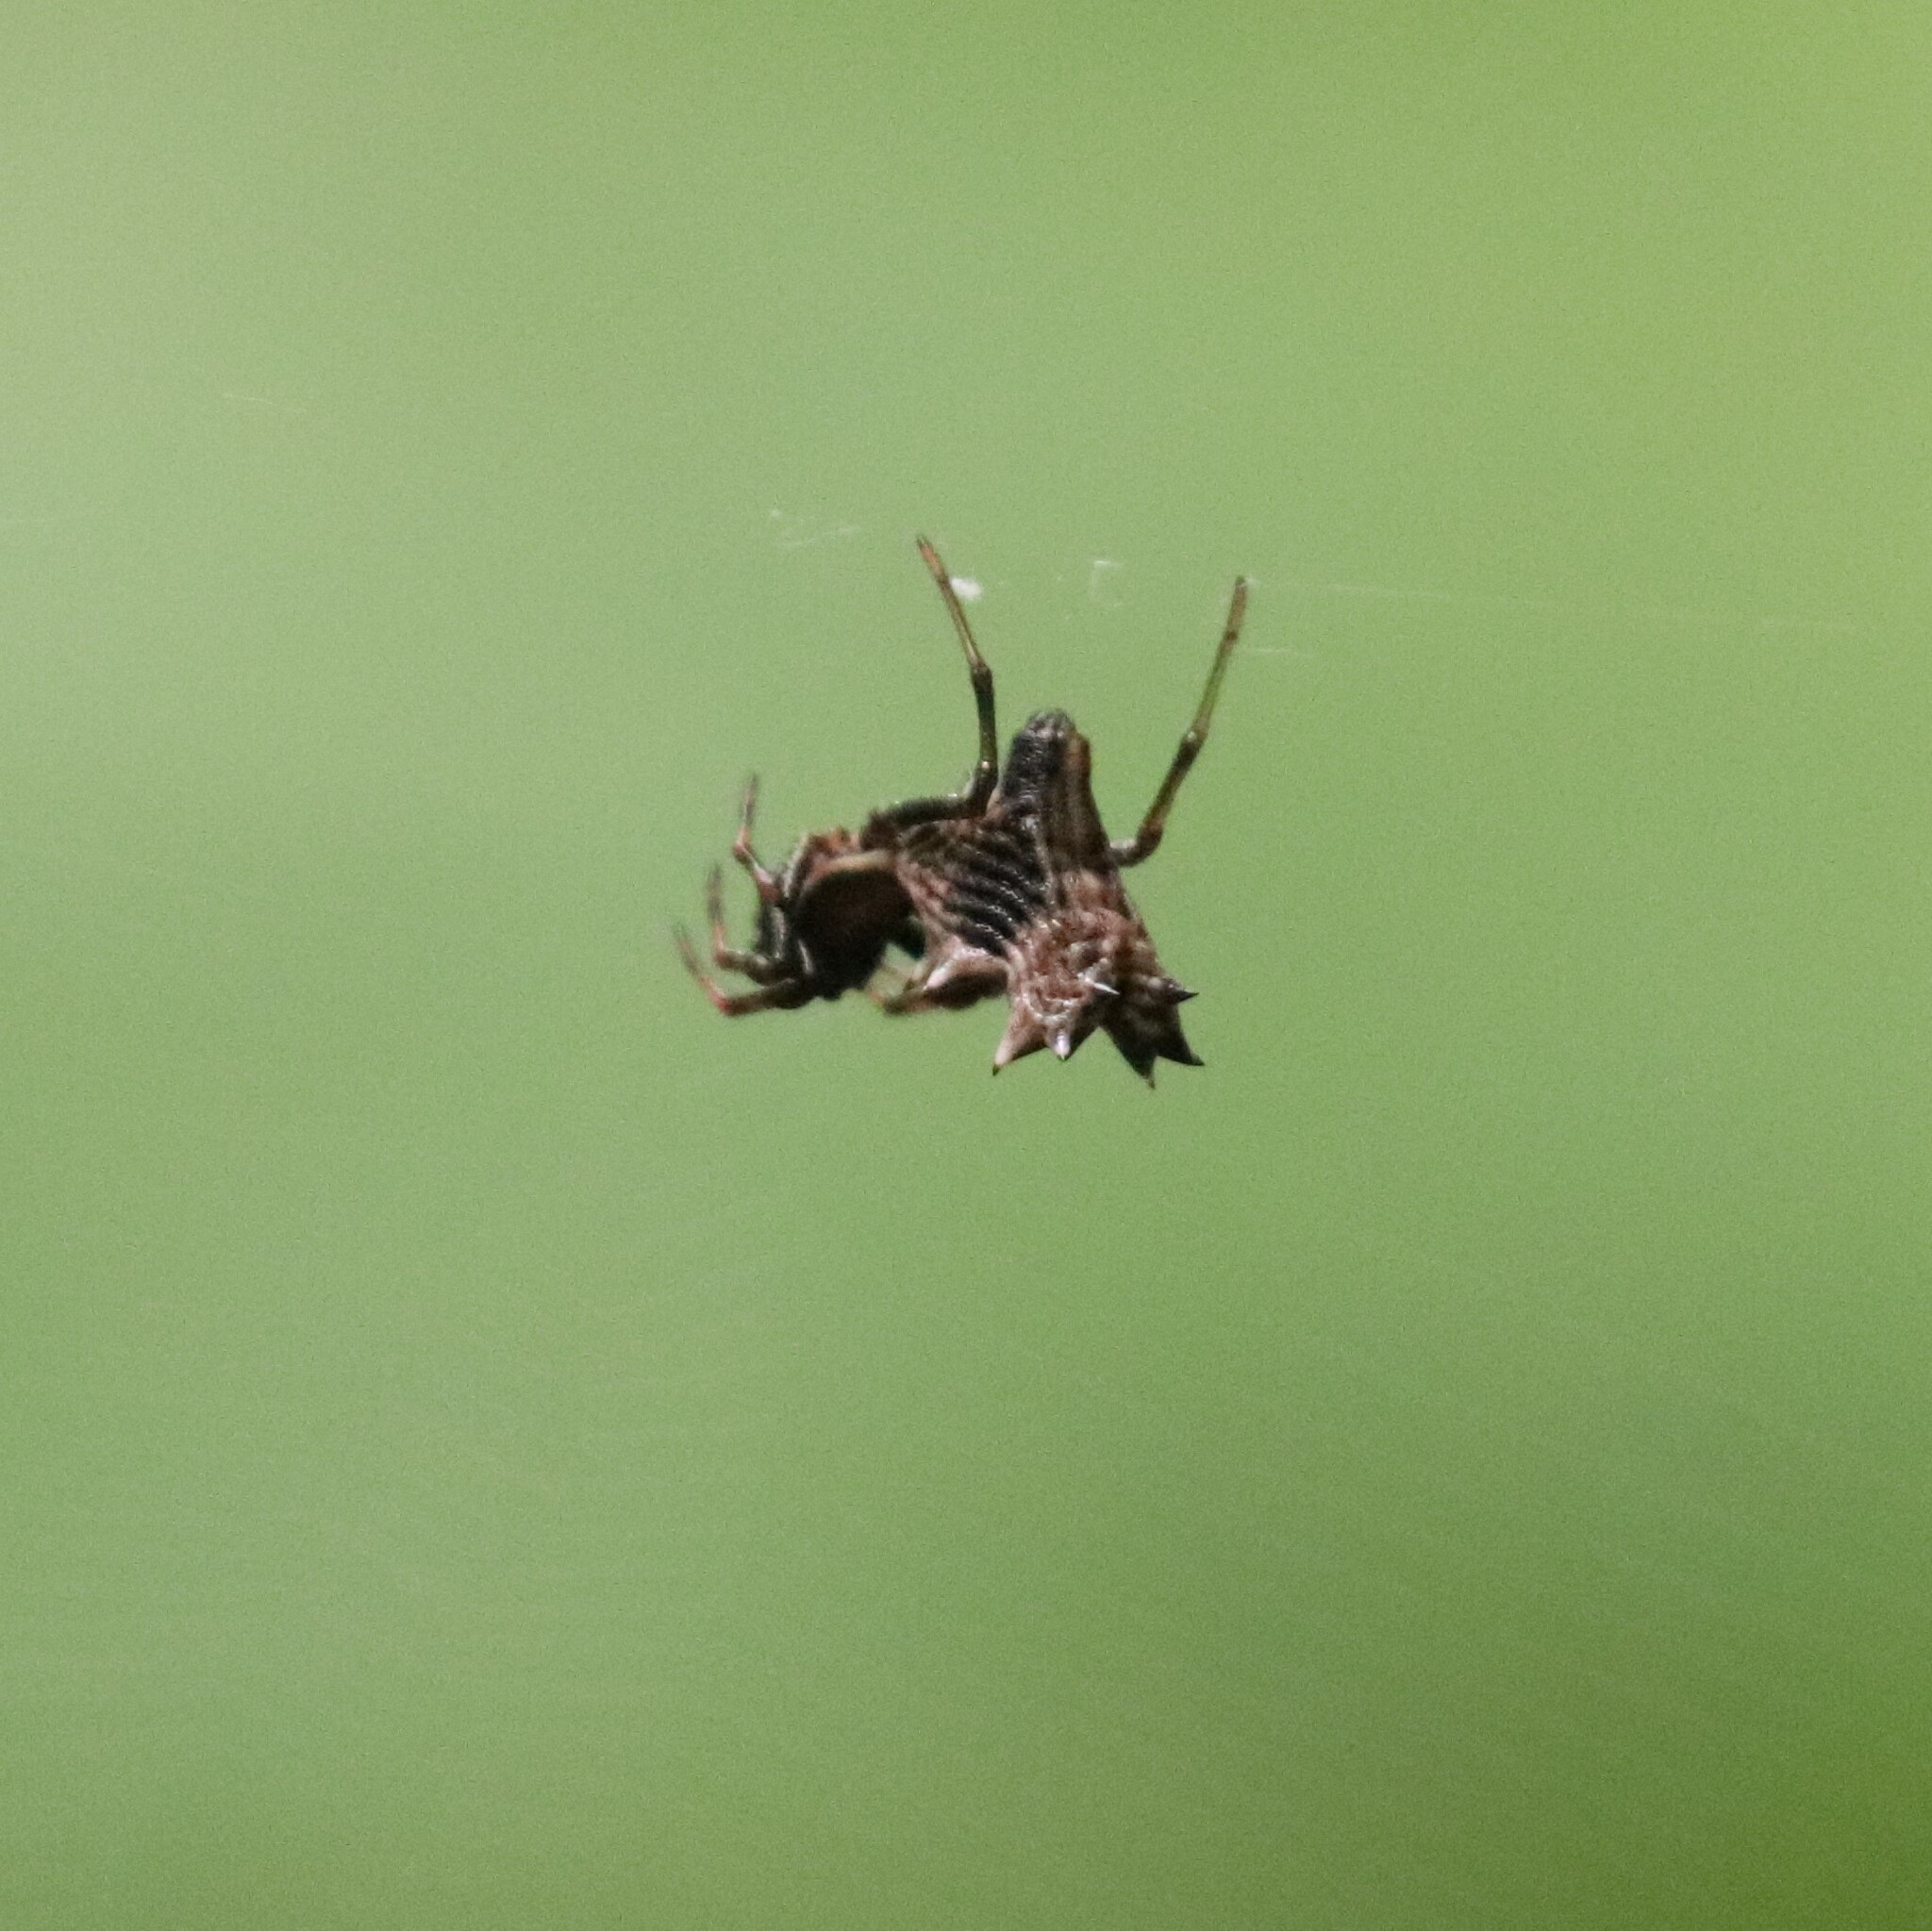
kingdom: Animalia
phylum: Arthropoda
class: Arachnida
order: Araneae
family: Araneidae
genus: Micrathena
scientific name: Micrathena gracilis
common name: Orb weavers
